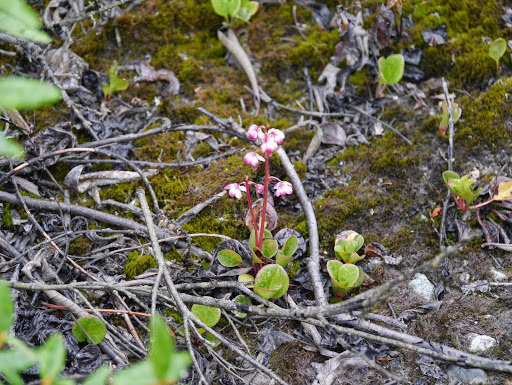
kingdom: Plantae
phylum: Tracheophyta
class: Magnoliopsida
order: Ericales
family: Ericaceae
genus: Pyrola
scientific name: Pyrola asarifolia
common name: Bog wintergreen
